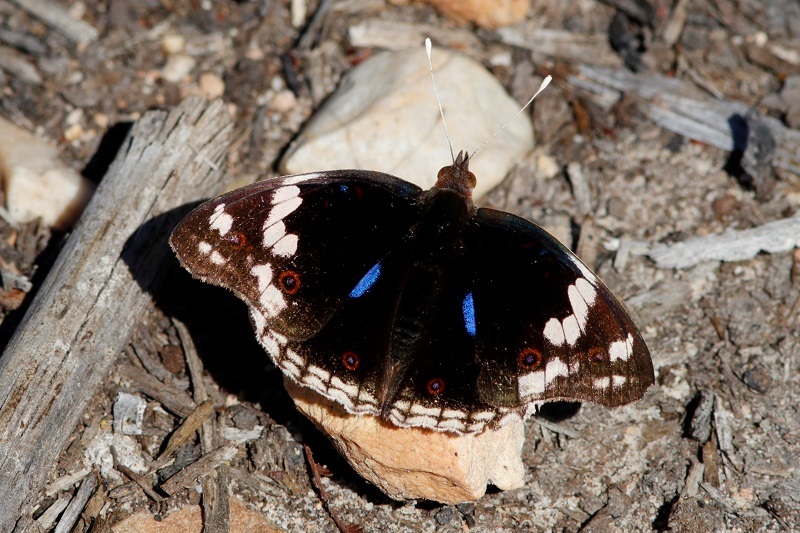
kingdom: Animalia
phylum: Arthropoda
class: Insecta
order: Lepidoptera
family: Nymphalidae
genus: Junonia
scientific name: Junonia oenone
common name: Dark blue pansy
